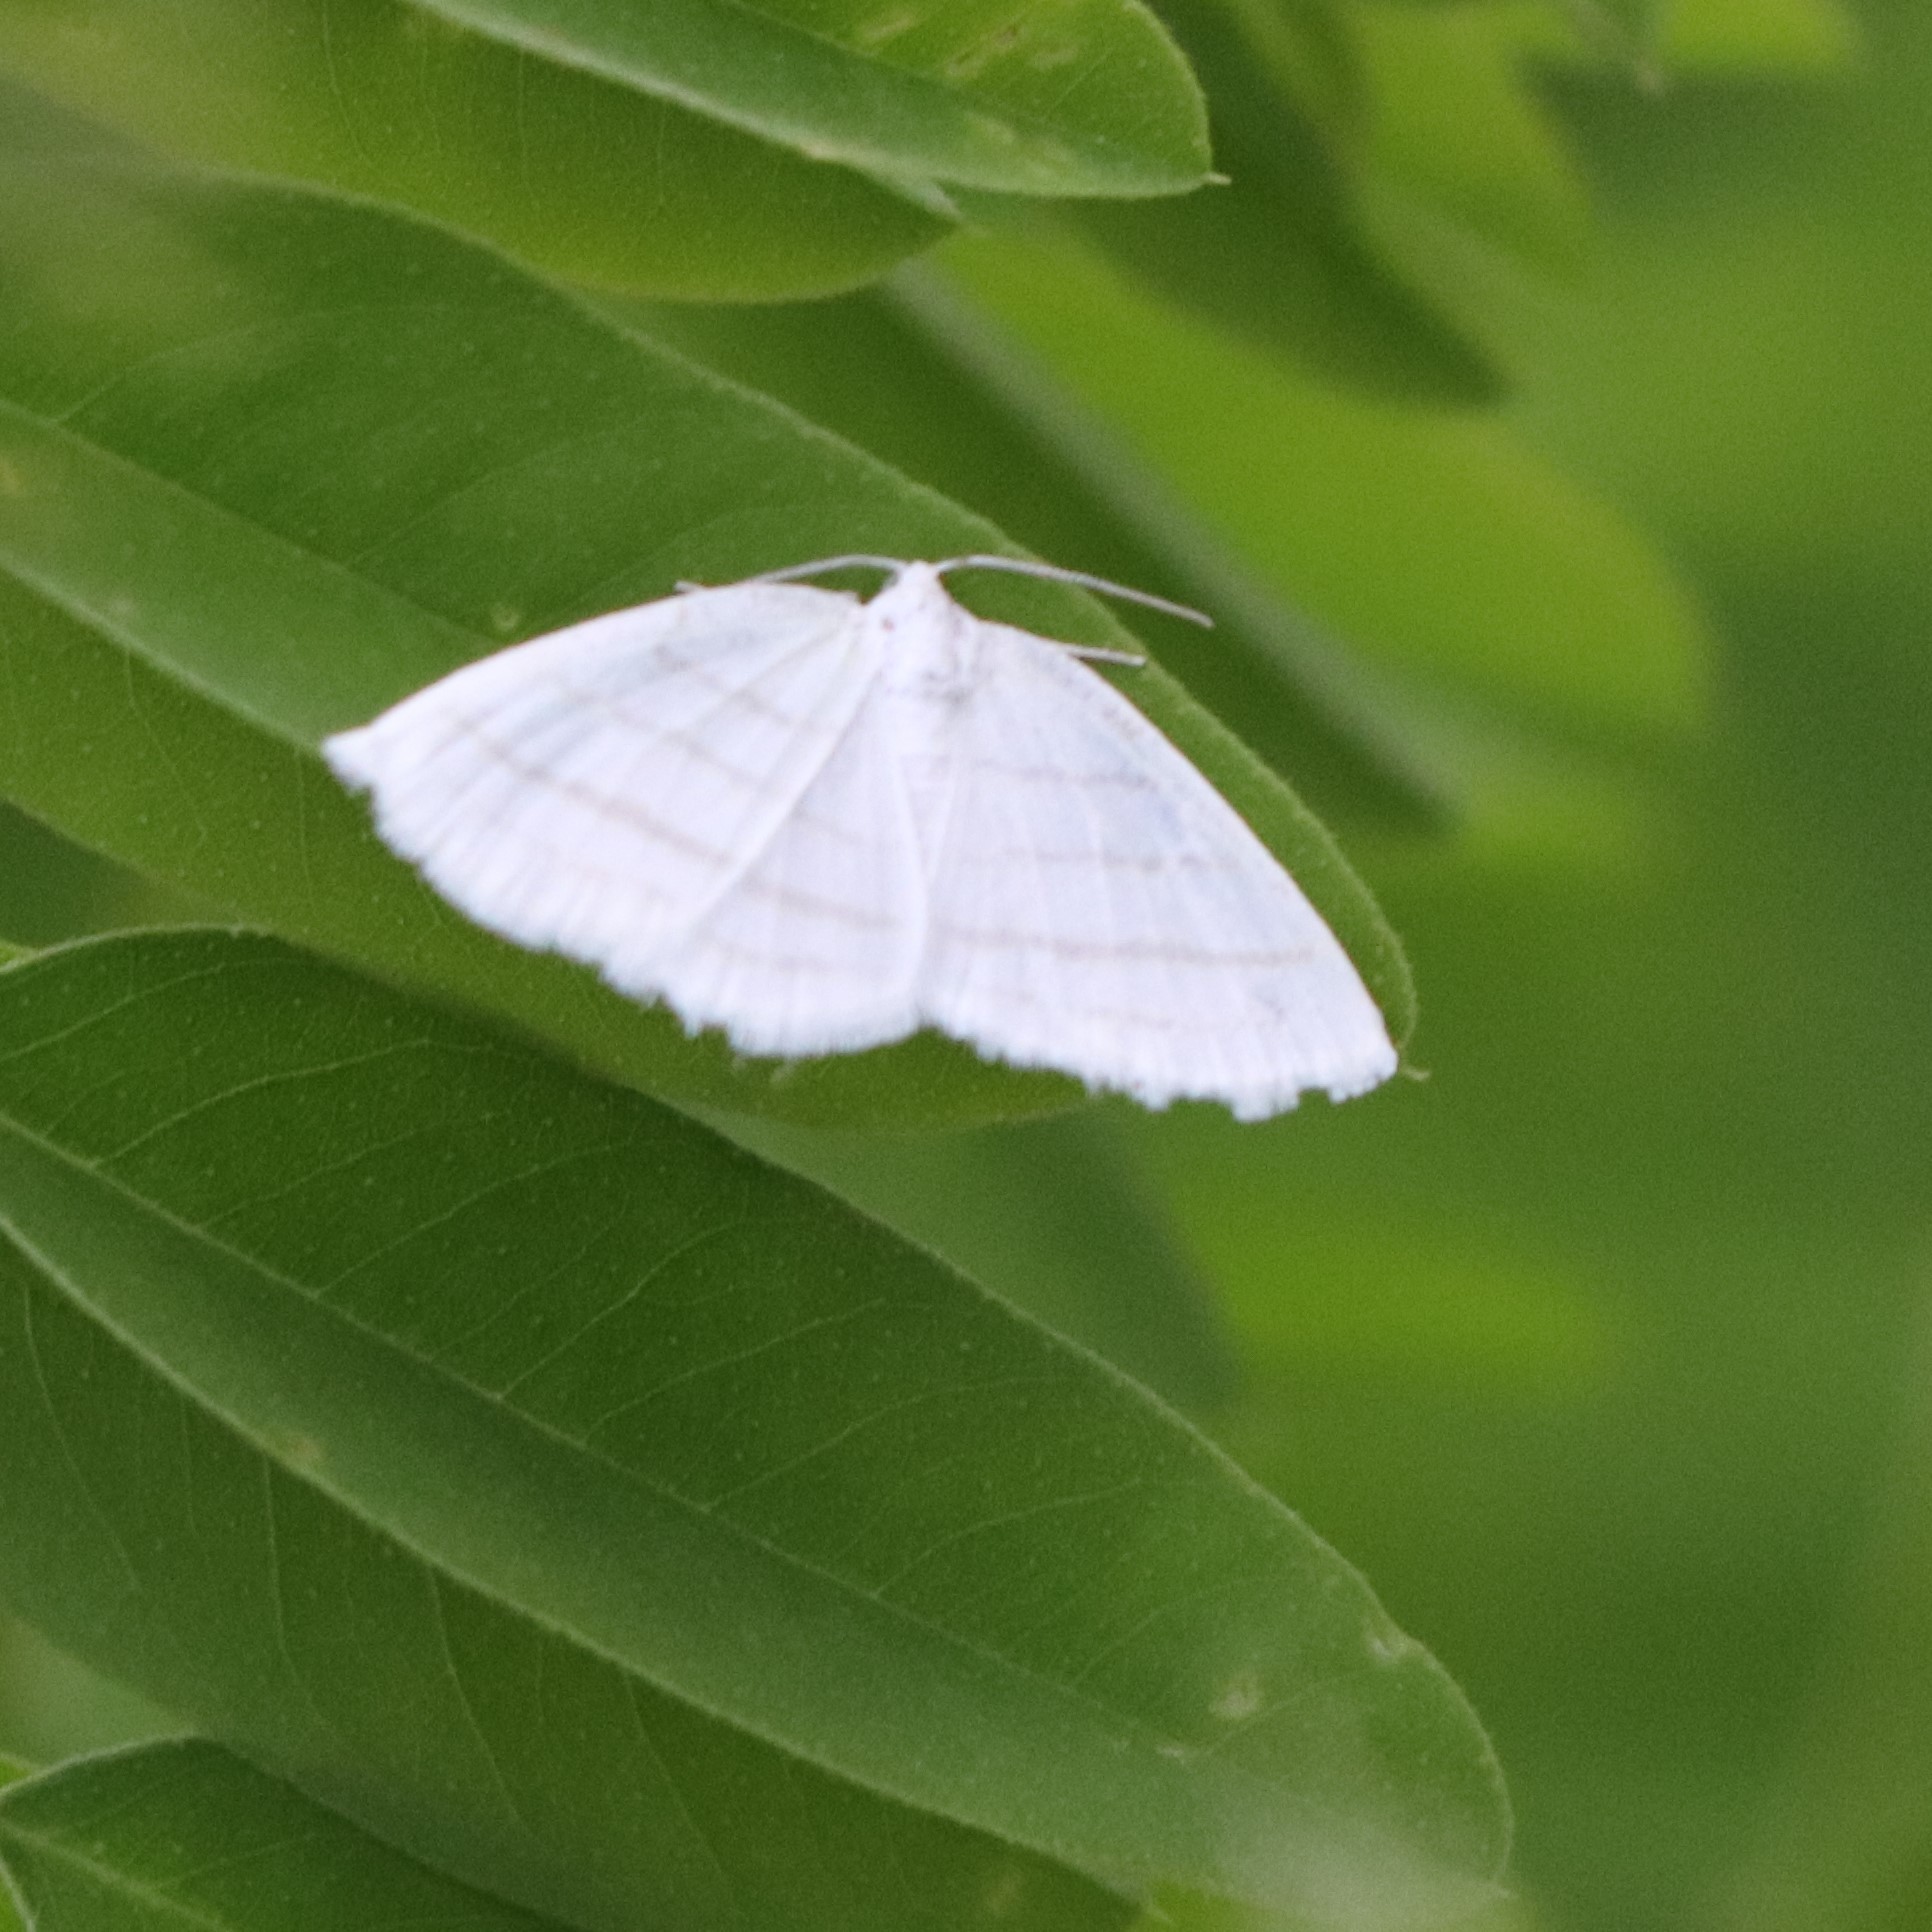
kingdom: Animalia
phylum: Arthropoda
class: Insecta
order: Lepidoptera
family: Geometridae
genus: Cabera
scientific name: Cabera quadrifasciaria
